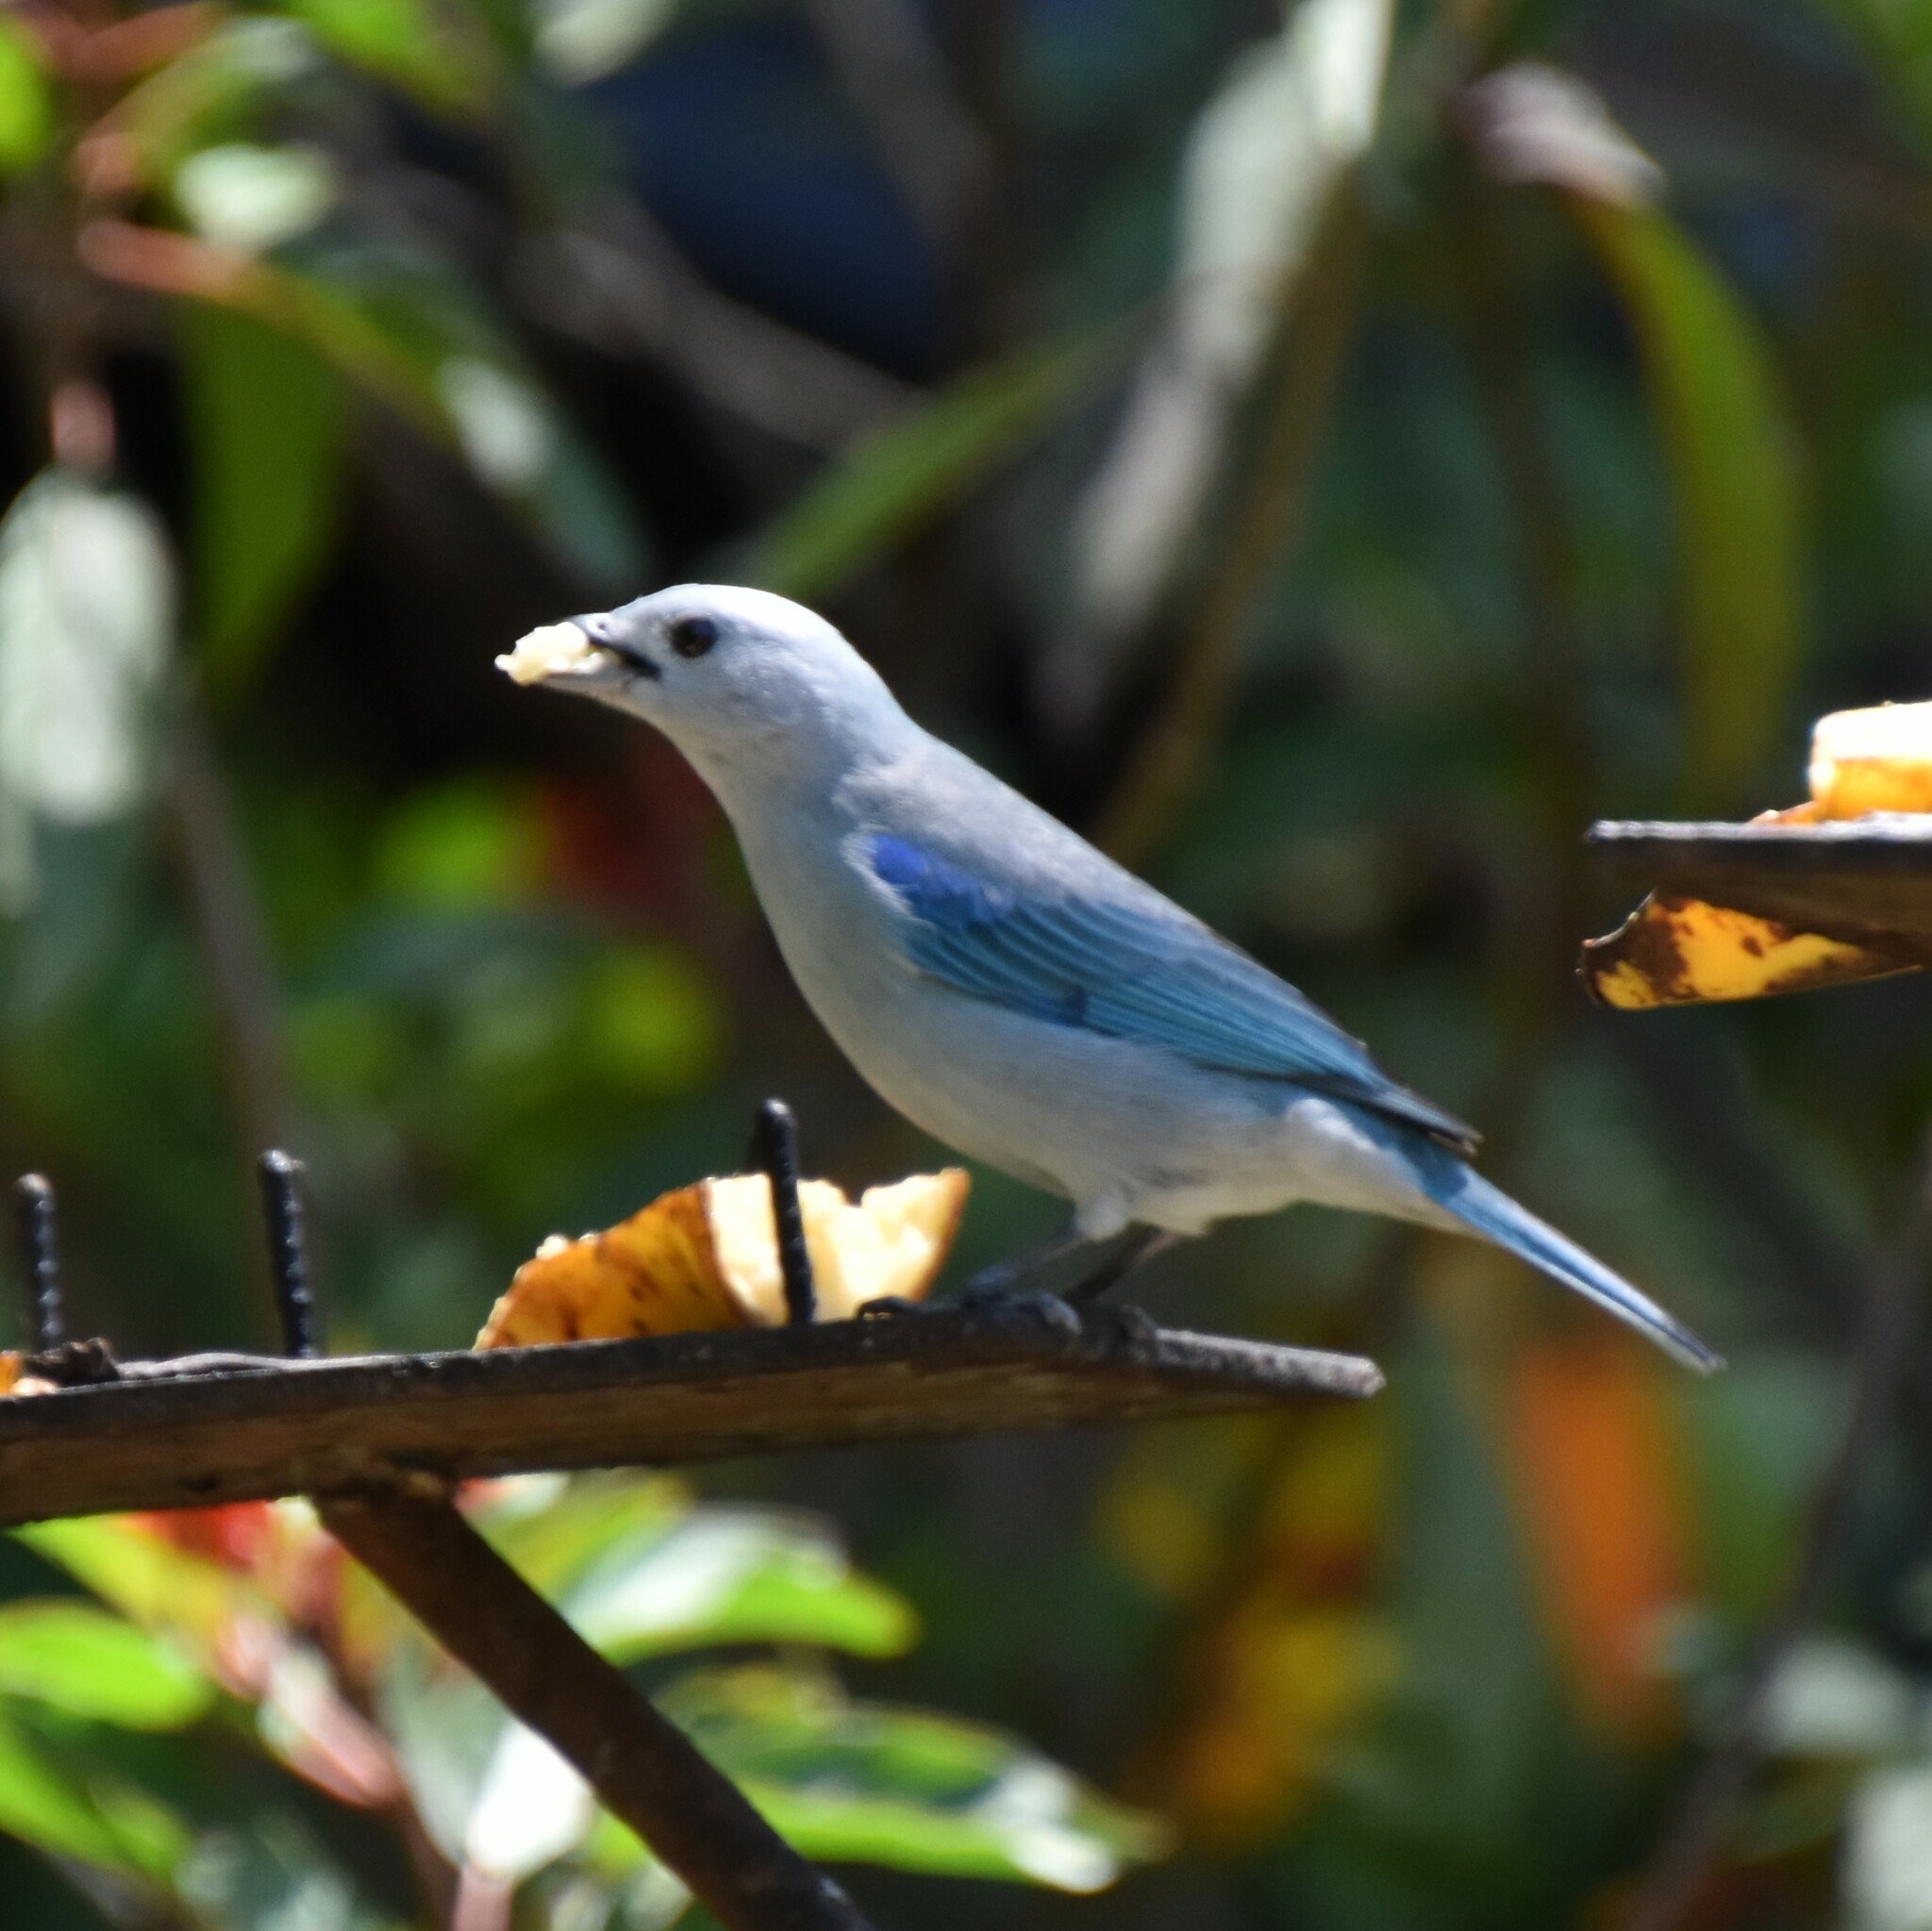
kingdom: Animalia
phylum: Chordata
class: Aves
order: Passeriformes
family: Thraupidae
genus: Thraupis
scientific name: Thraupis episcopus
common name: Blue-grey tanager
